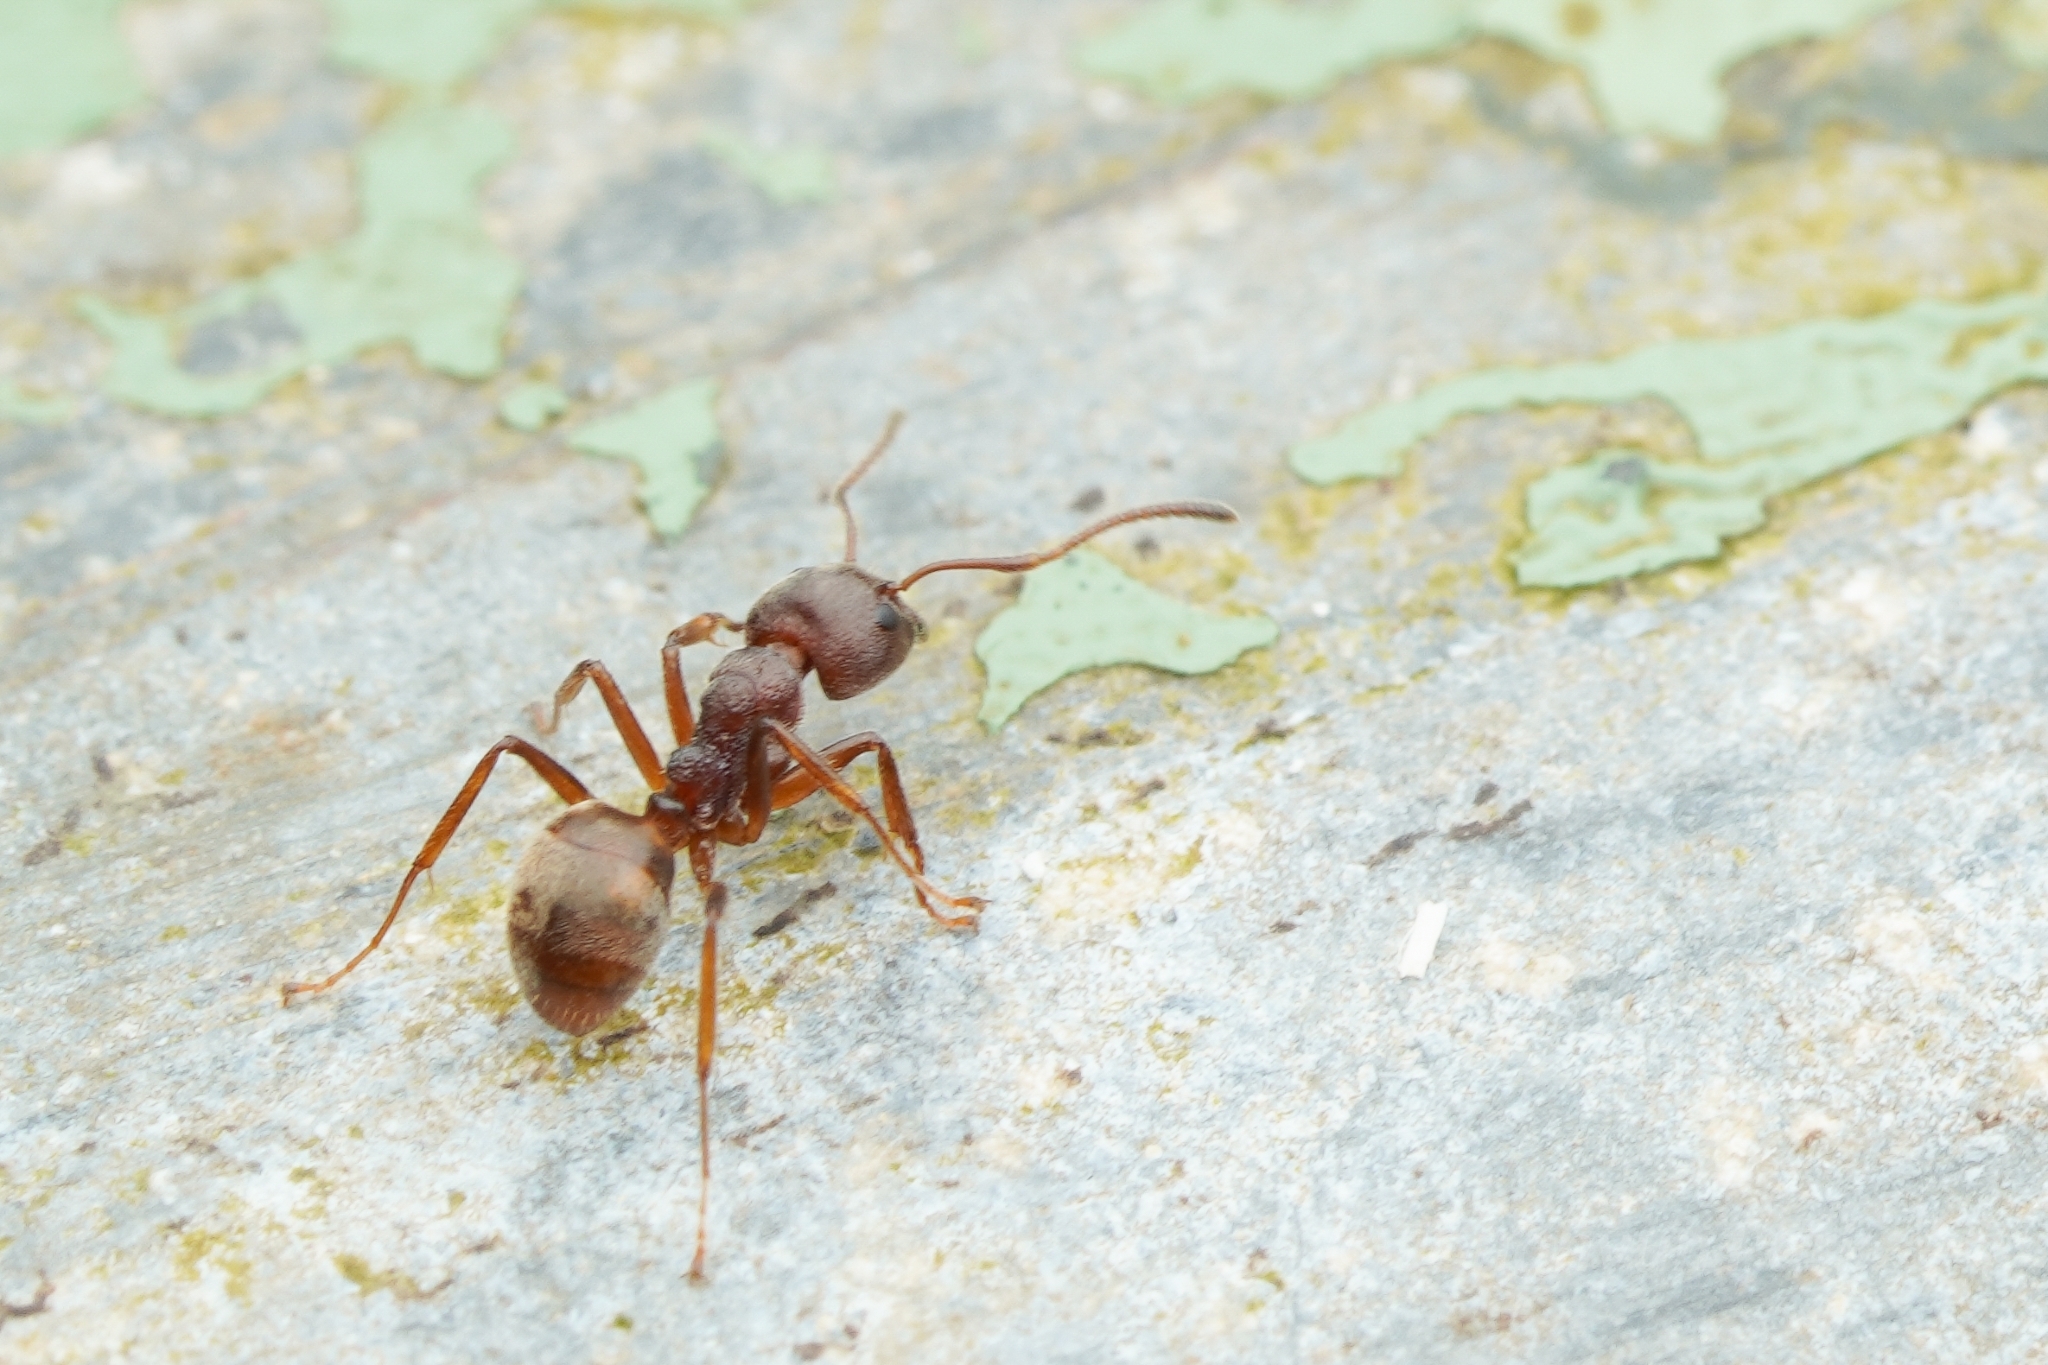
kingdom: Animalia
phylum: Arthropoda
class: Insecta
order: Hymenoptera
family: Formicidae
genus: Dolichoderus
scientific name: Dolichoderus thoracicus
